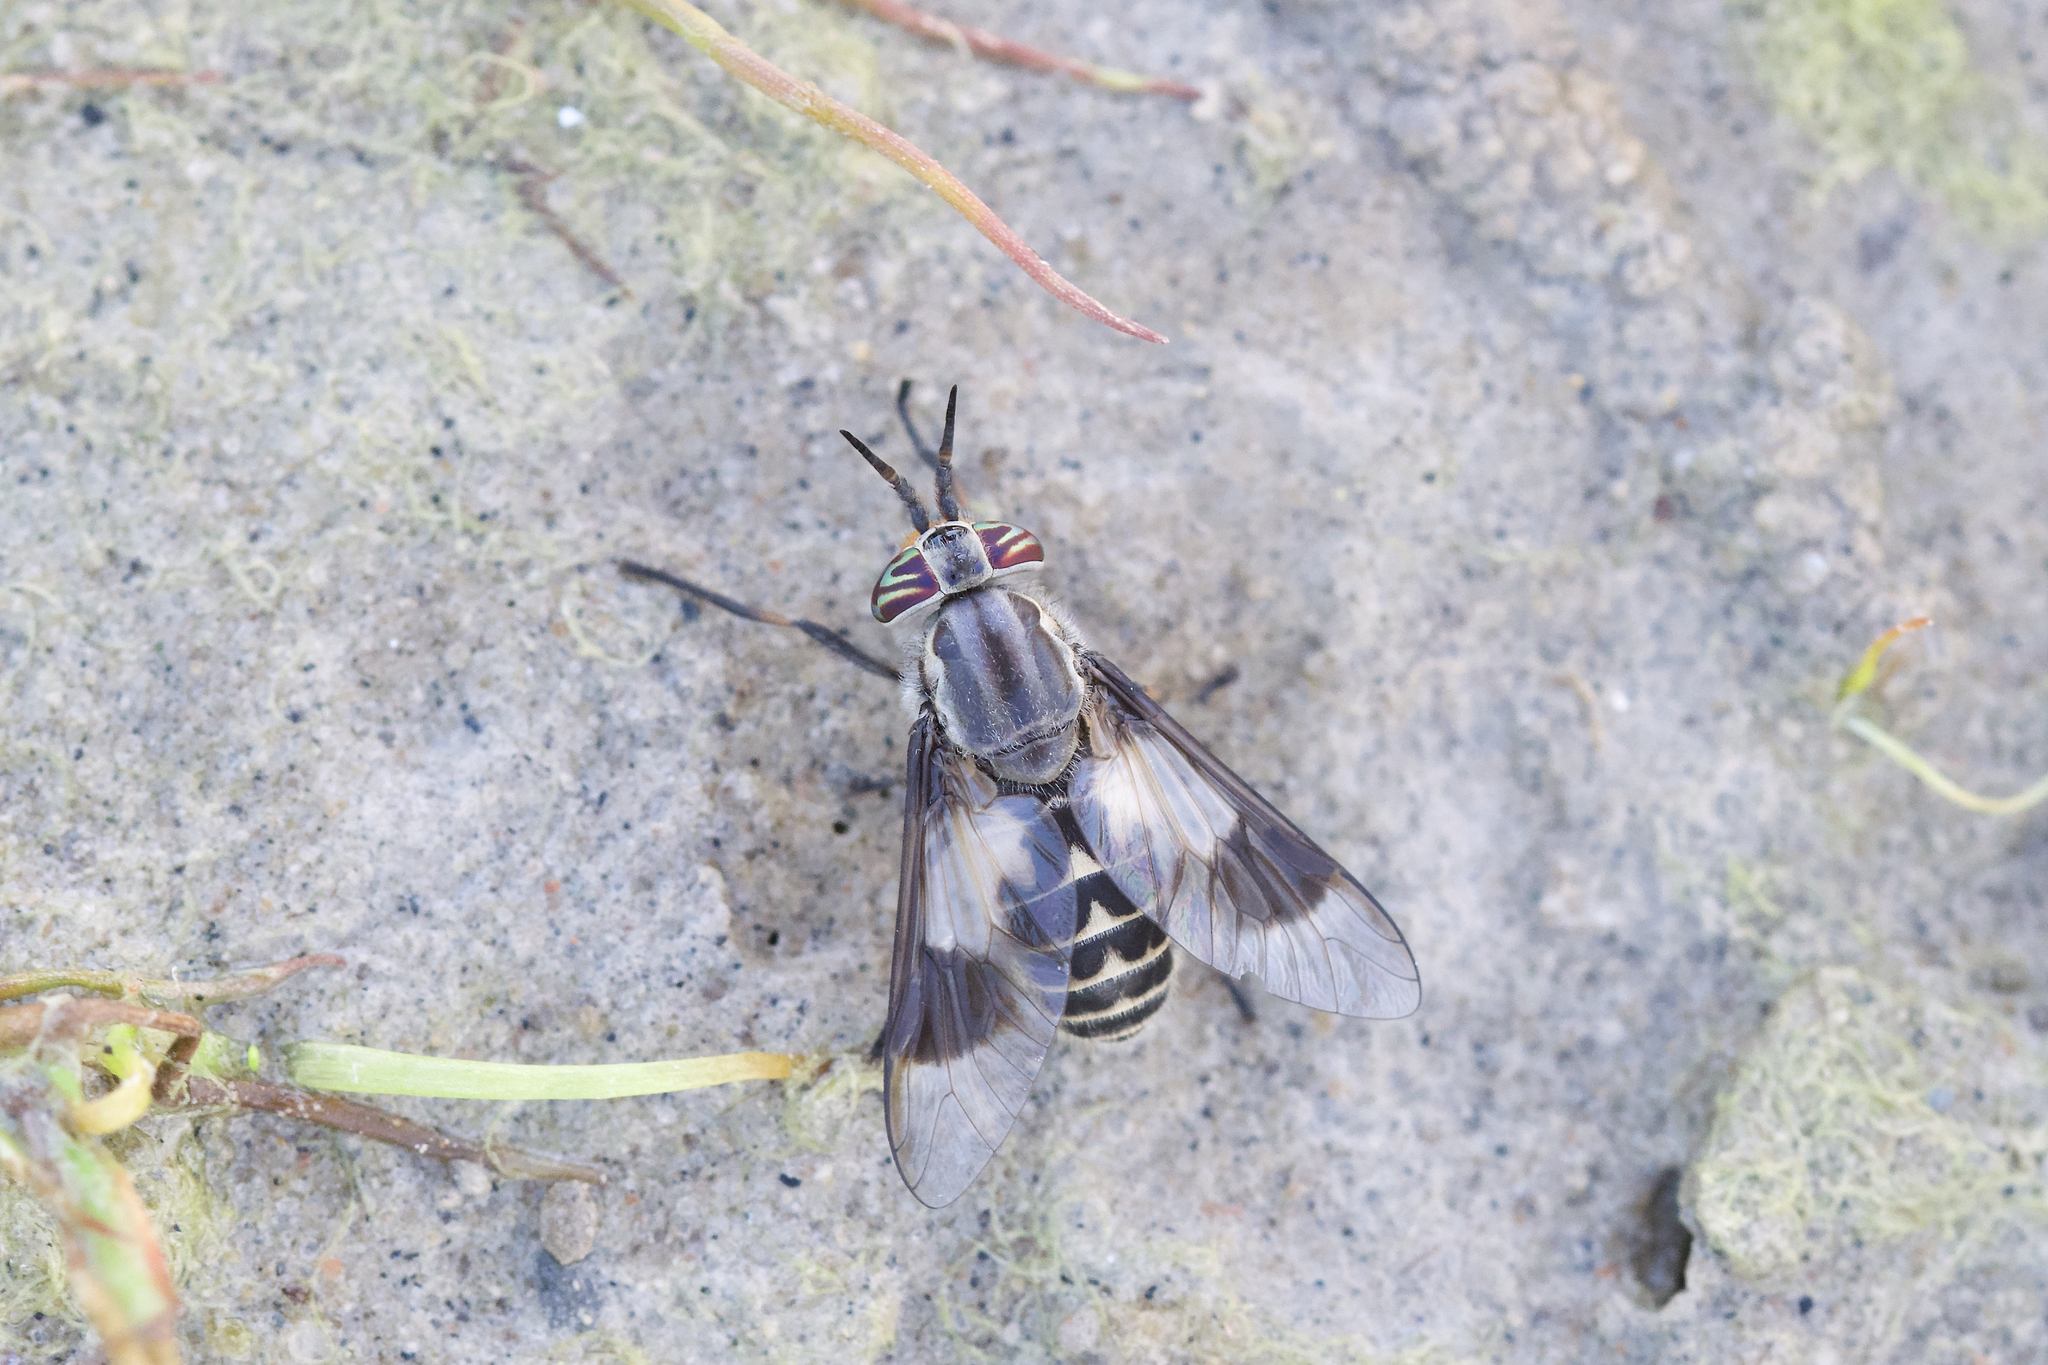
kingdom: Animalia
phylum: Arthropoda
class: Insecta
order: Diptera
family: Tabanidae
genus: Chrysops
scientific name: Chrysops aestuans
